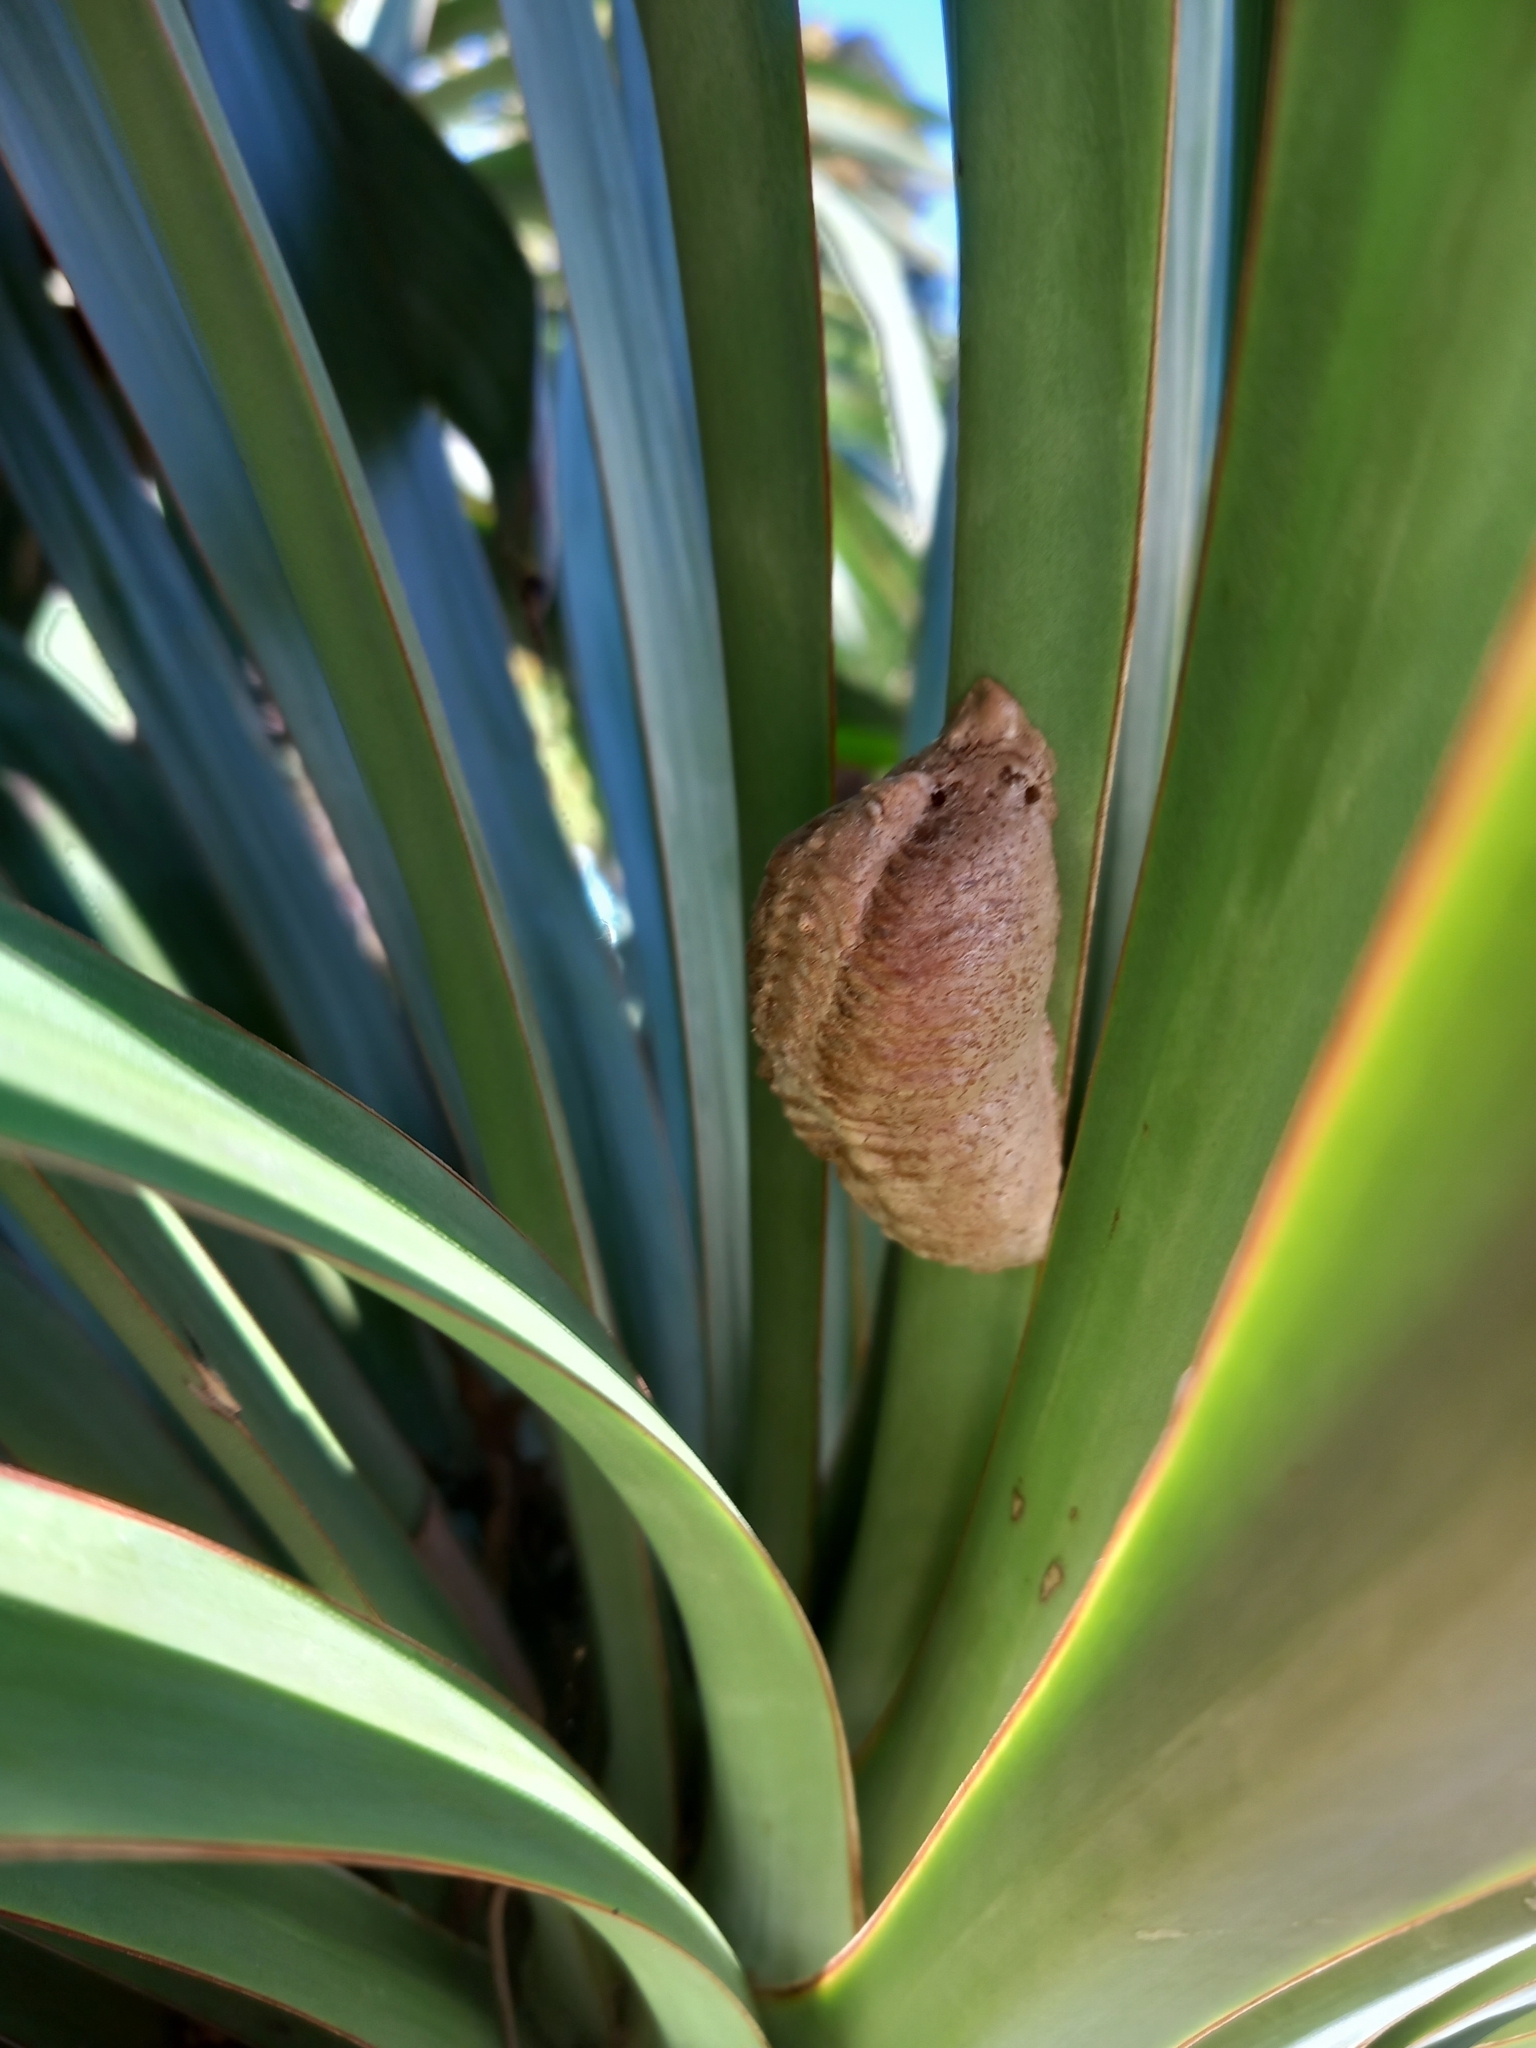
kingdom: Animalia
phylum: Arthropoda
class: Insecta
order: Mantodea
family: Mantidae
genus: Mantis
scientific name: Mantis religiosa
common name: Praying mantis
